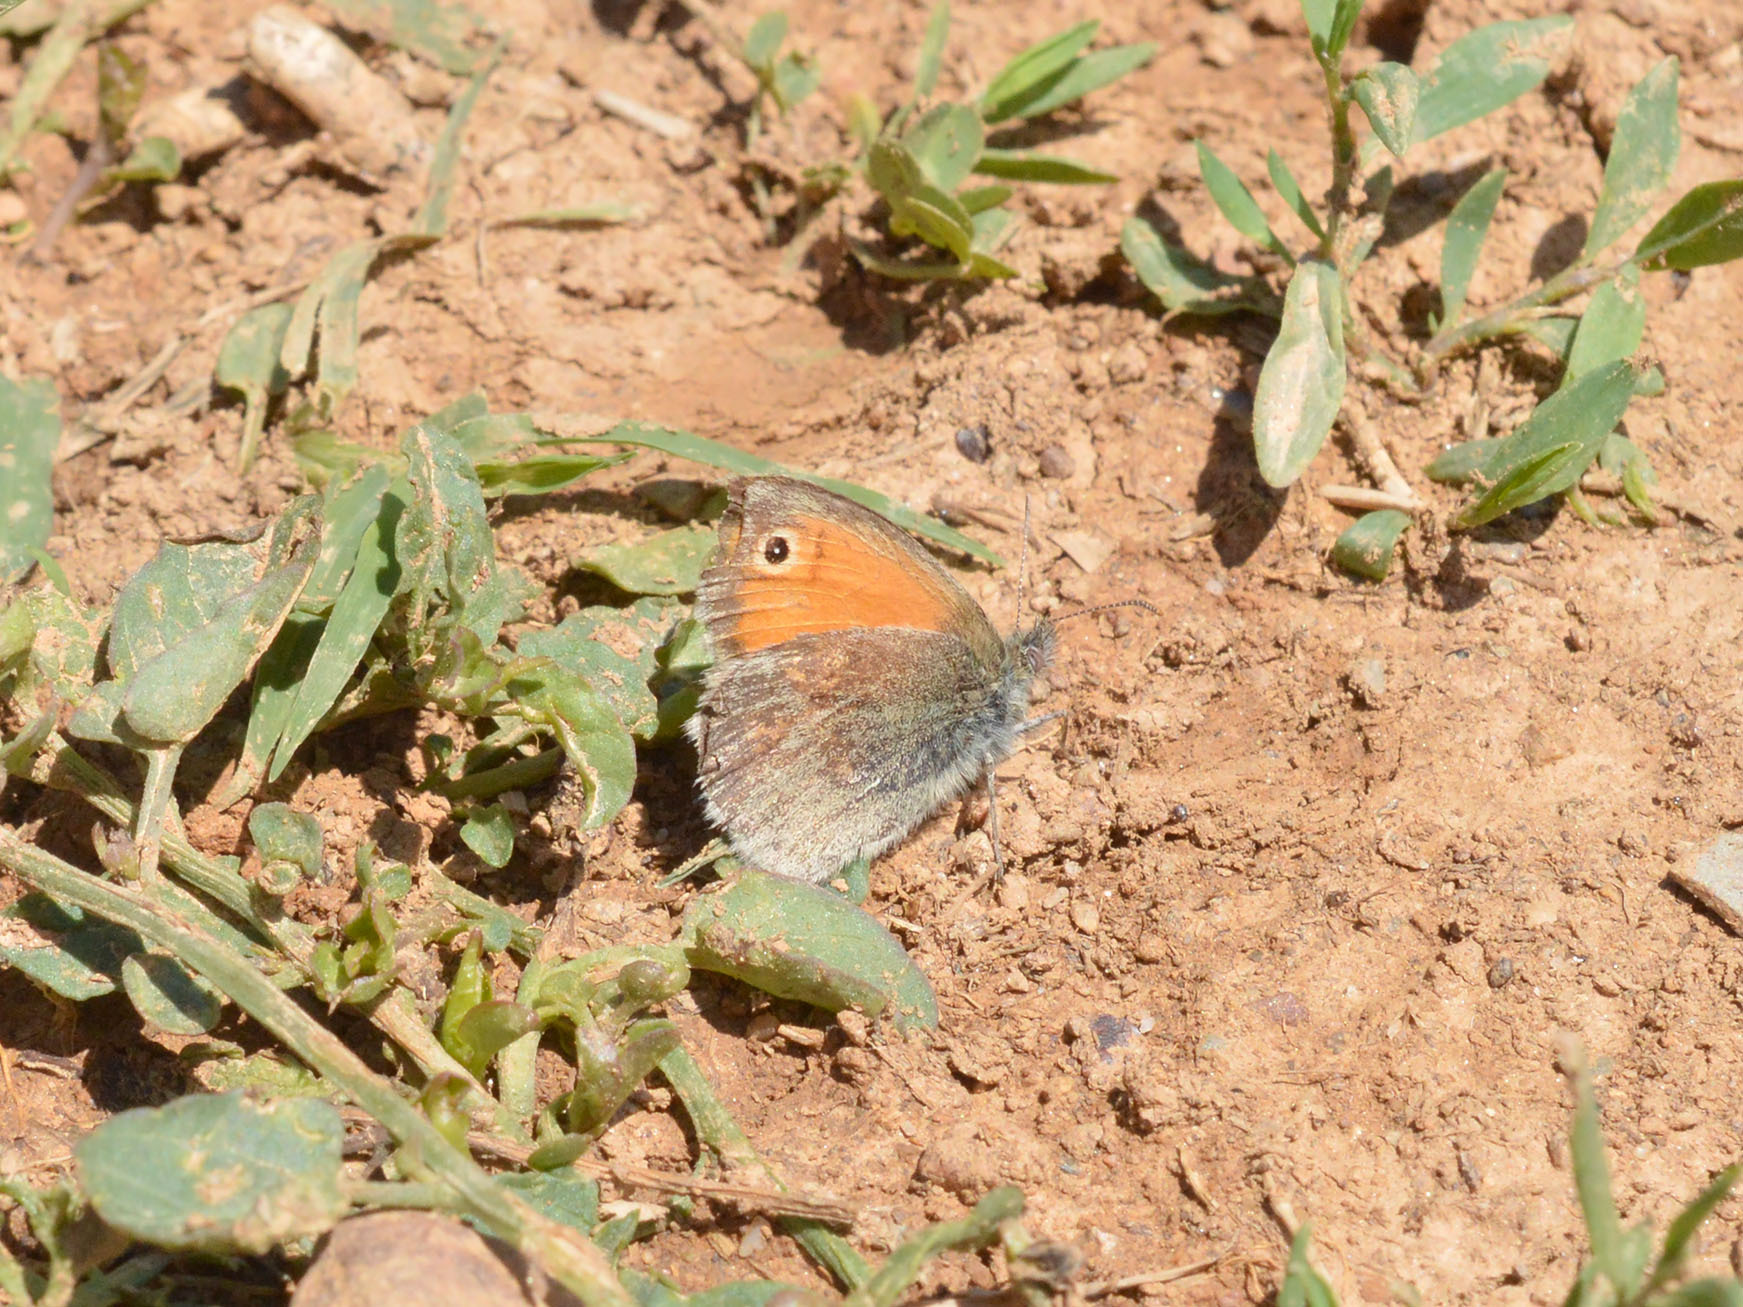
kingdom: Animalia
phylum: Arthropoda
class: Insecta
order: Lepidoptera
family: Nymphalidae
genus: Coenonympha
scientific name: Coenonympha pamphilus
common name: Small heath
